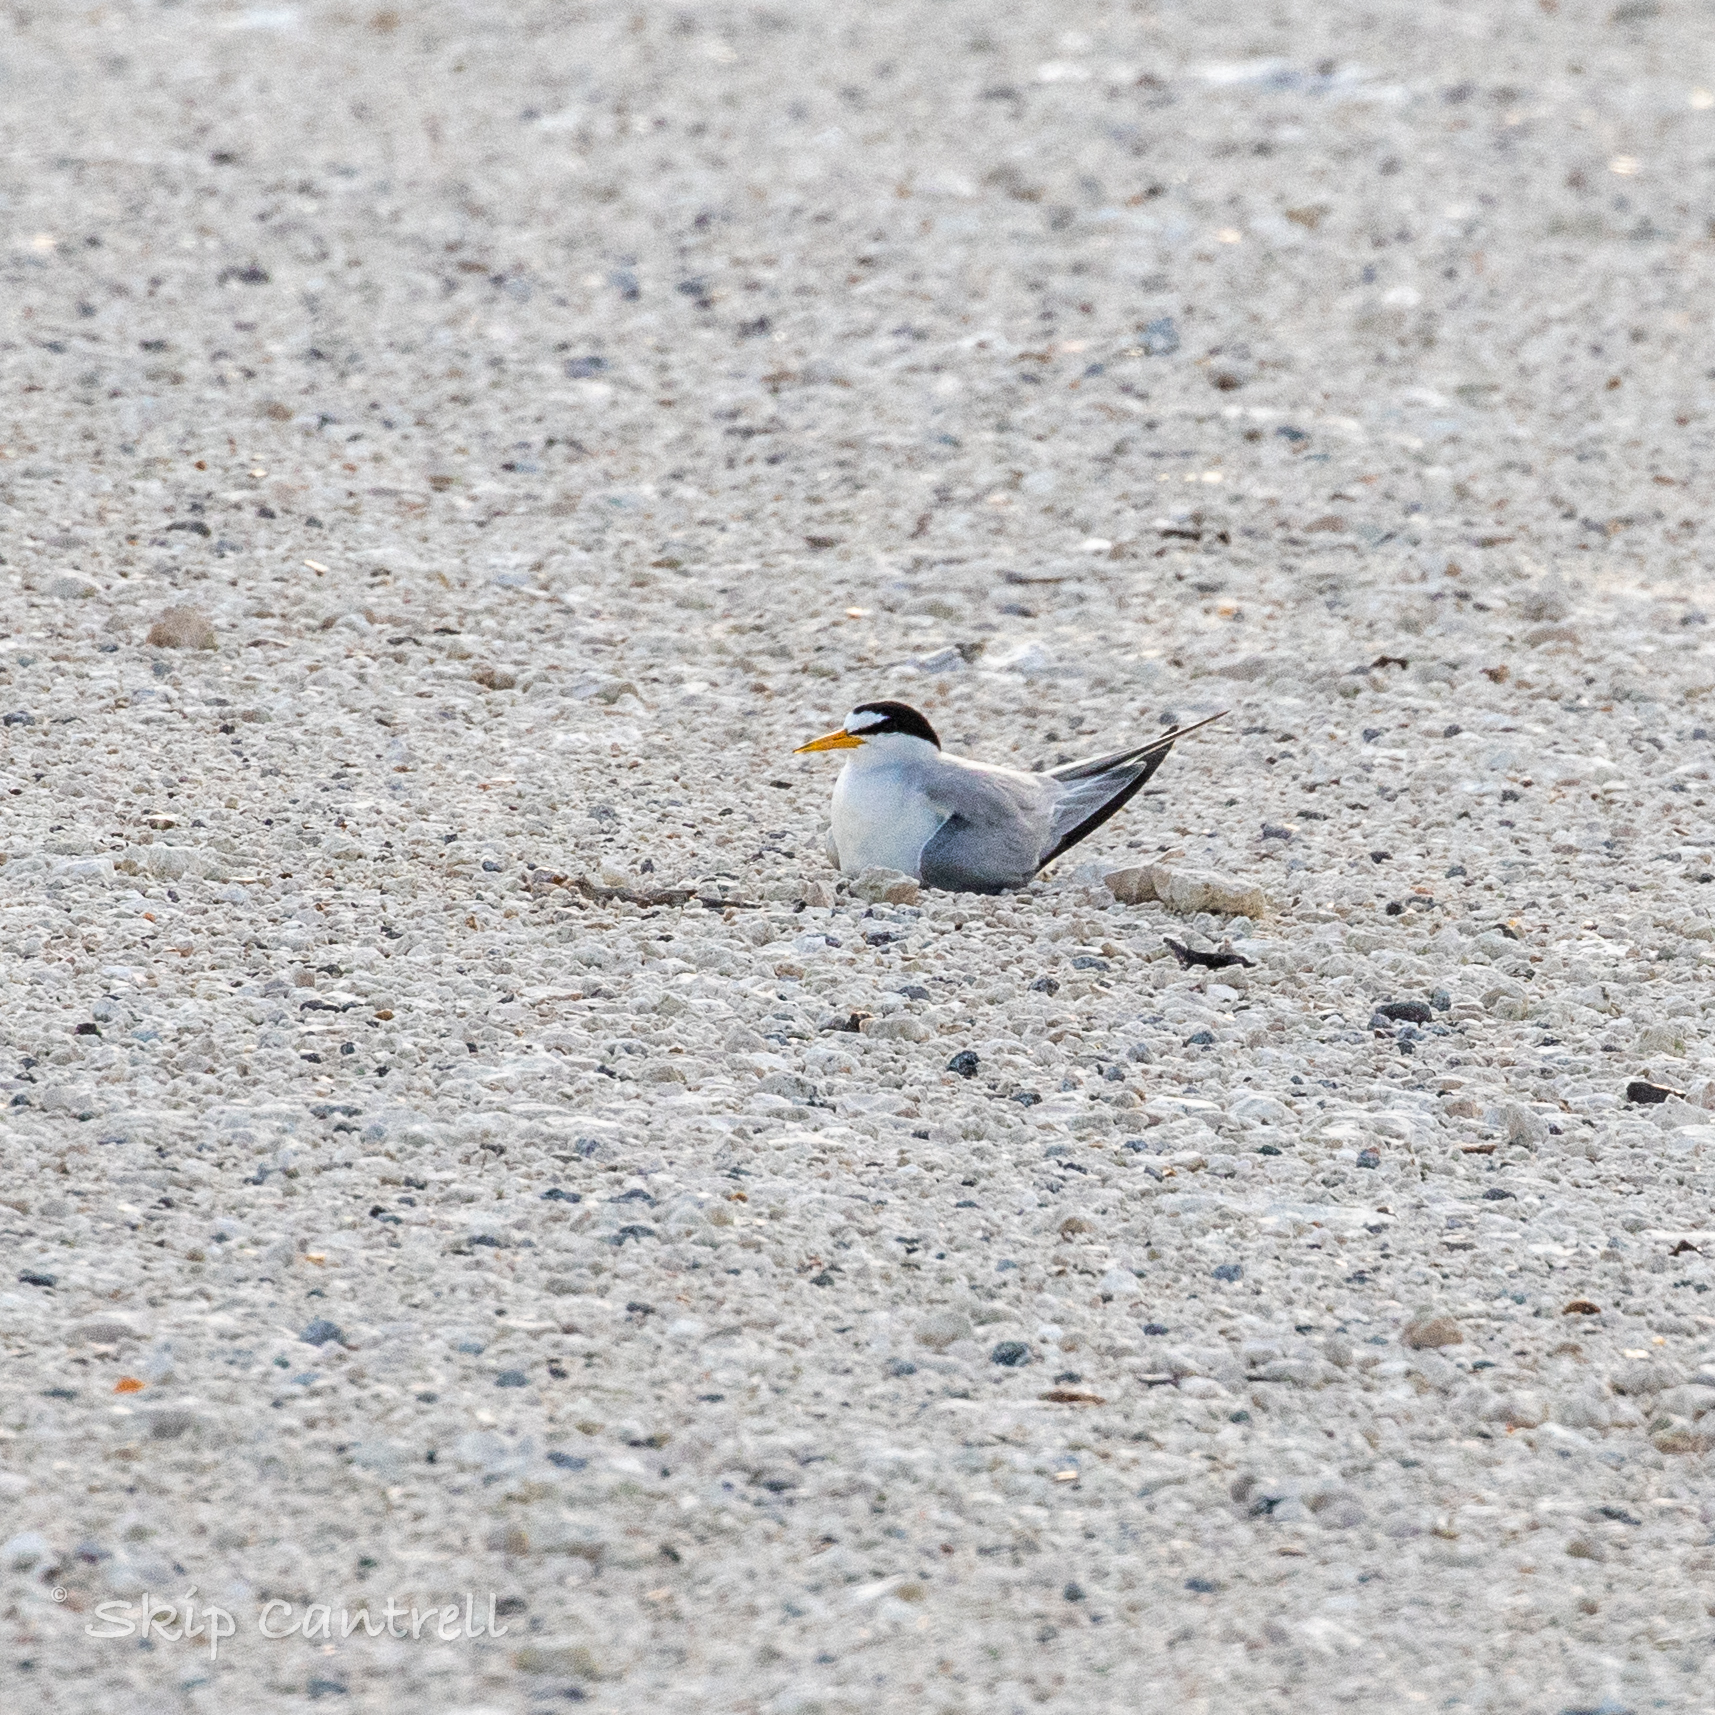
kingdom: Animalia
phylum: Chordata
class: Aves
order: Charadriiformes
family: Laridae
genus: Sternula
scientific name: Sternula antillarum
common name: Least tern
